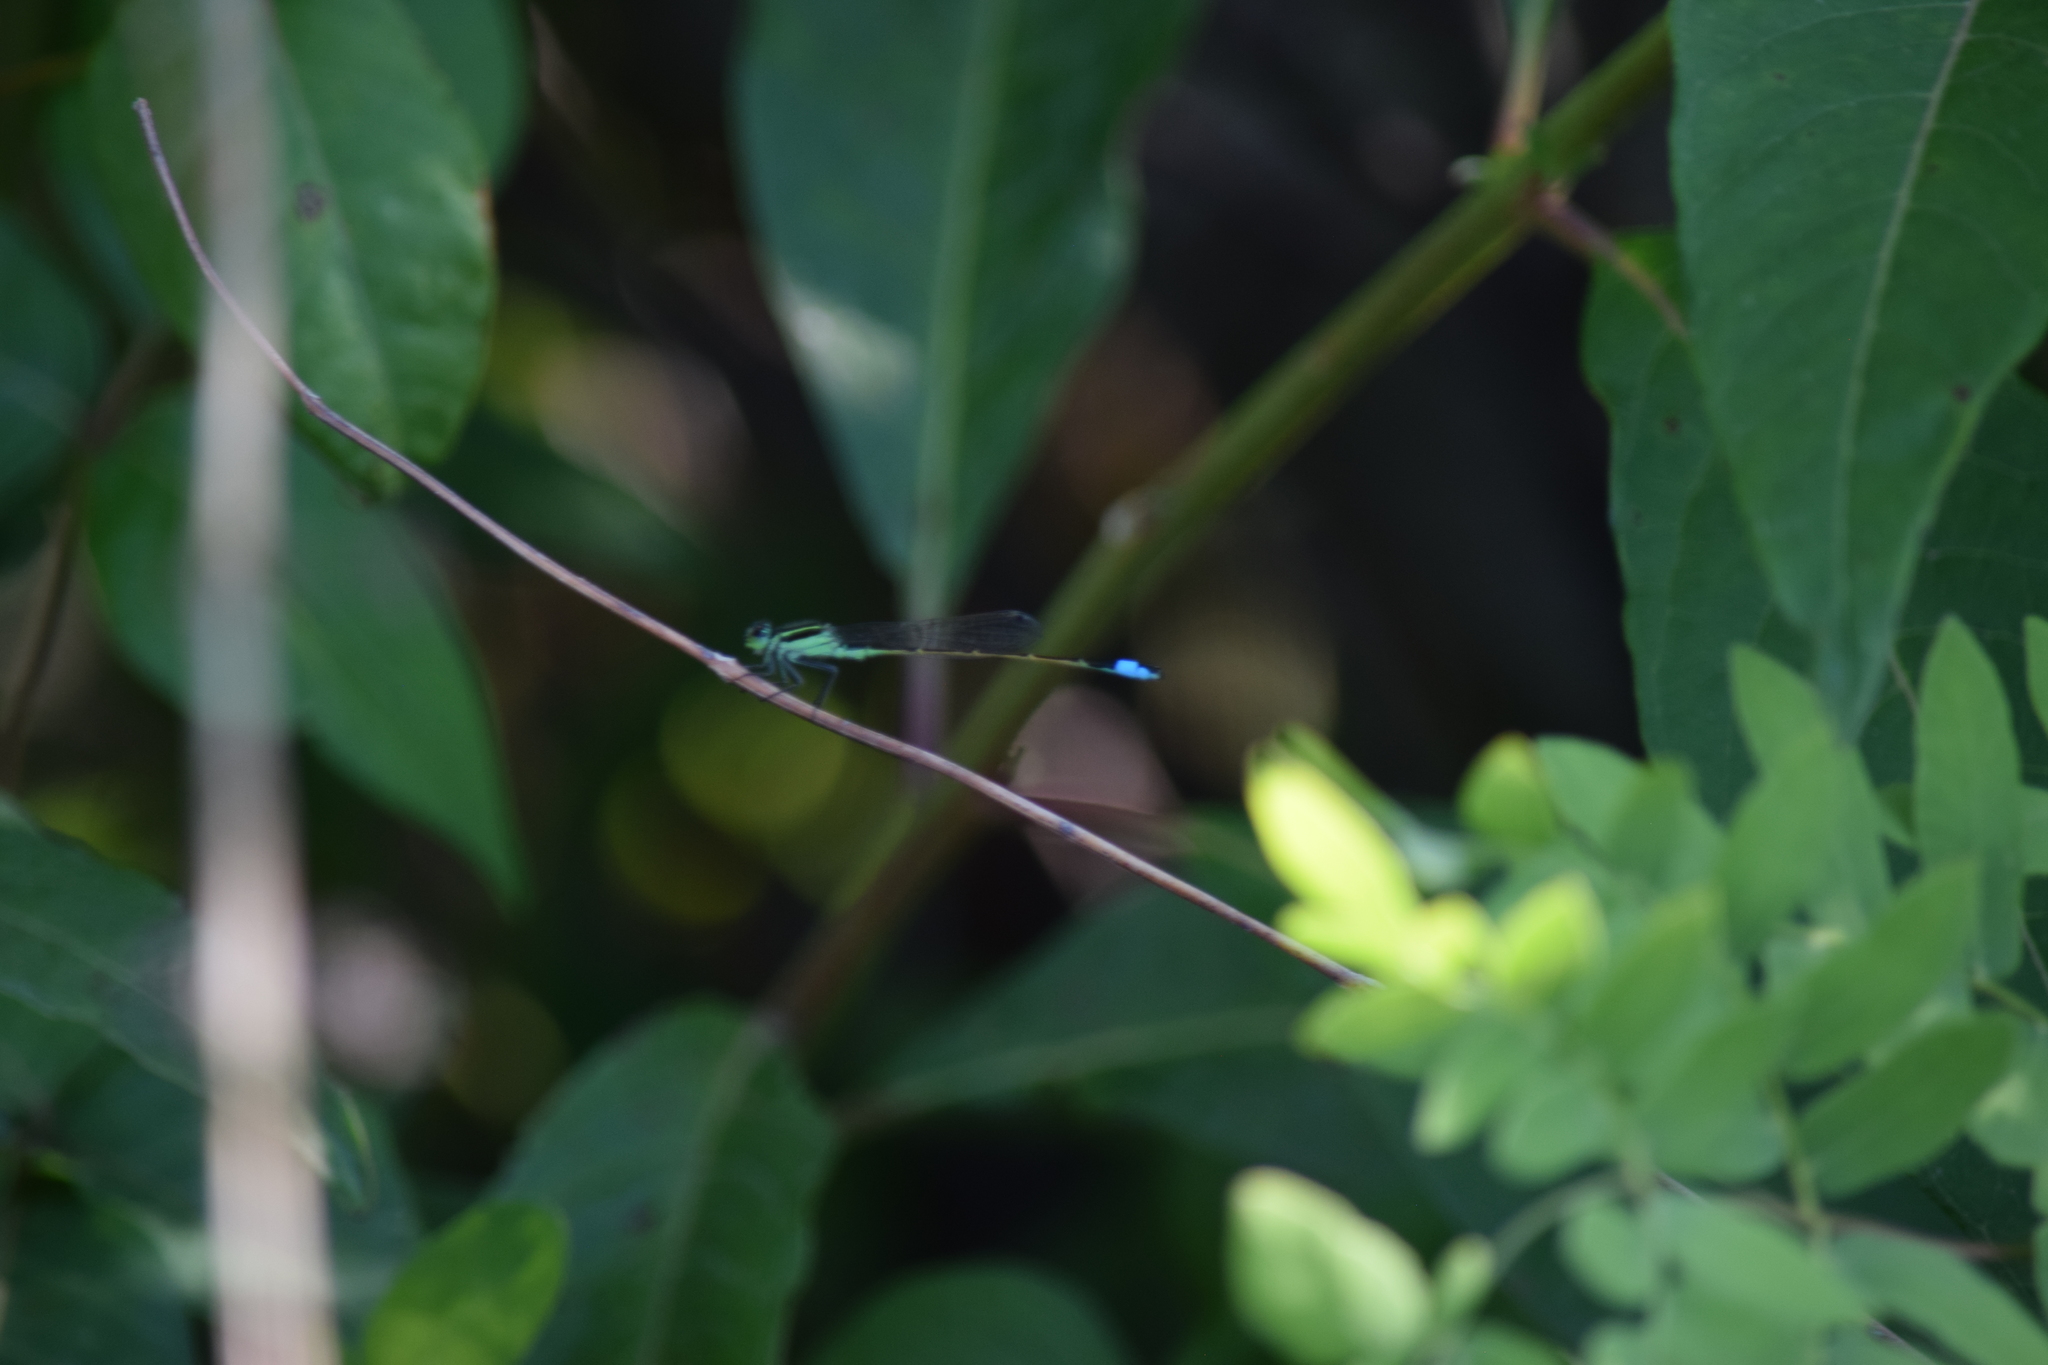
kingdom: Animalia
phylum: Arthropoda
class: Insecta
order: Odonata
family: Coenagrionidae
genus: Ischnura
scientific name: Ischnura ramburii
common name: Rambur's forktail
